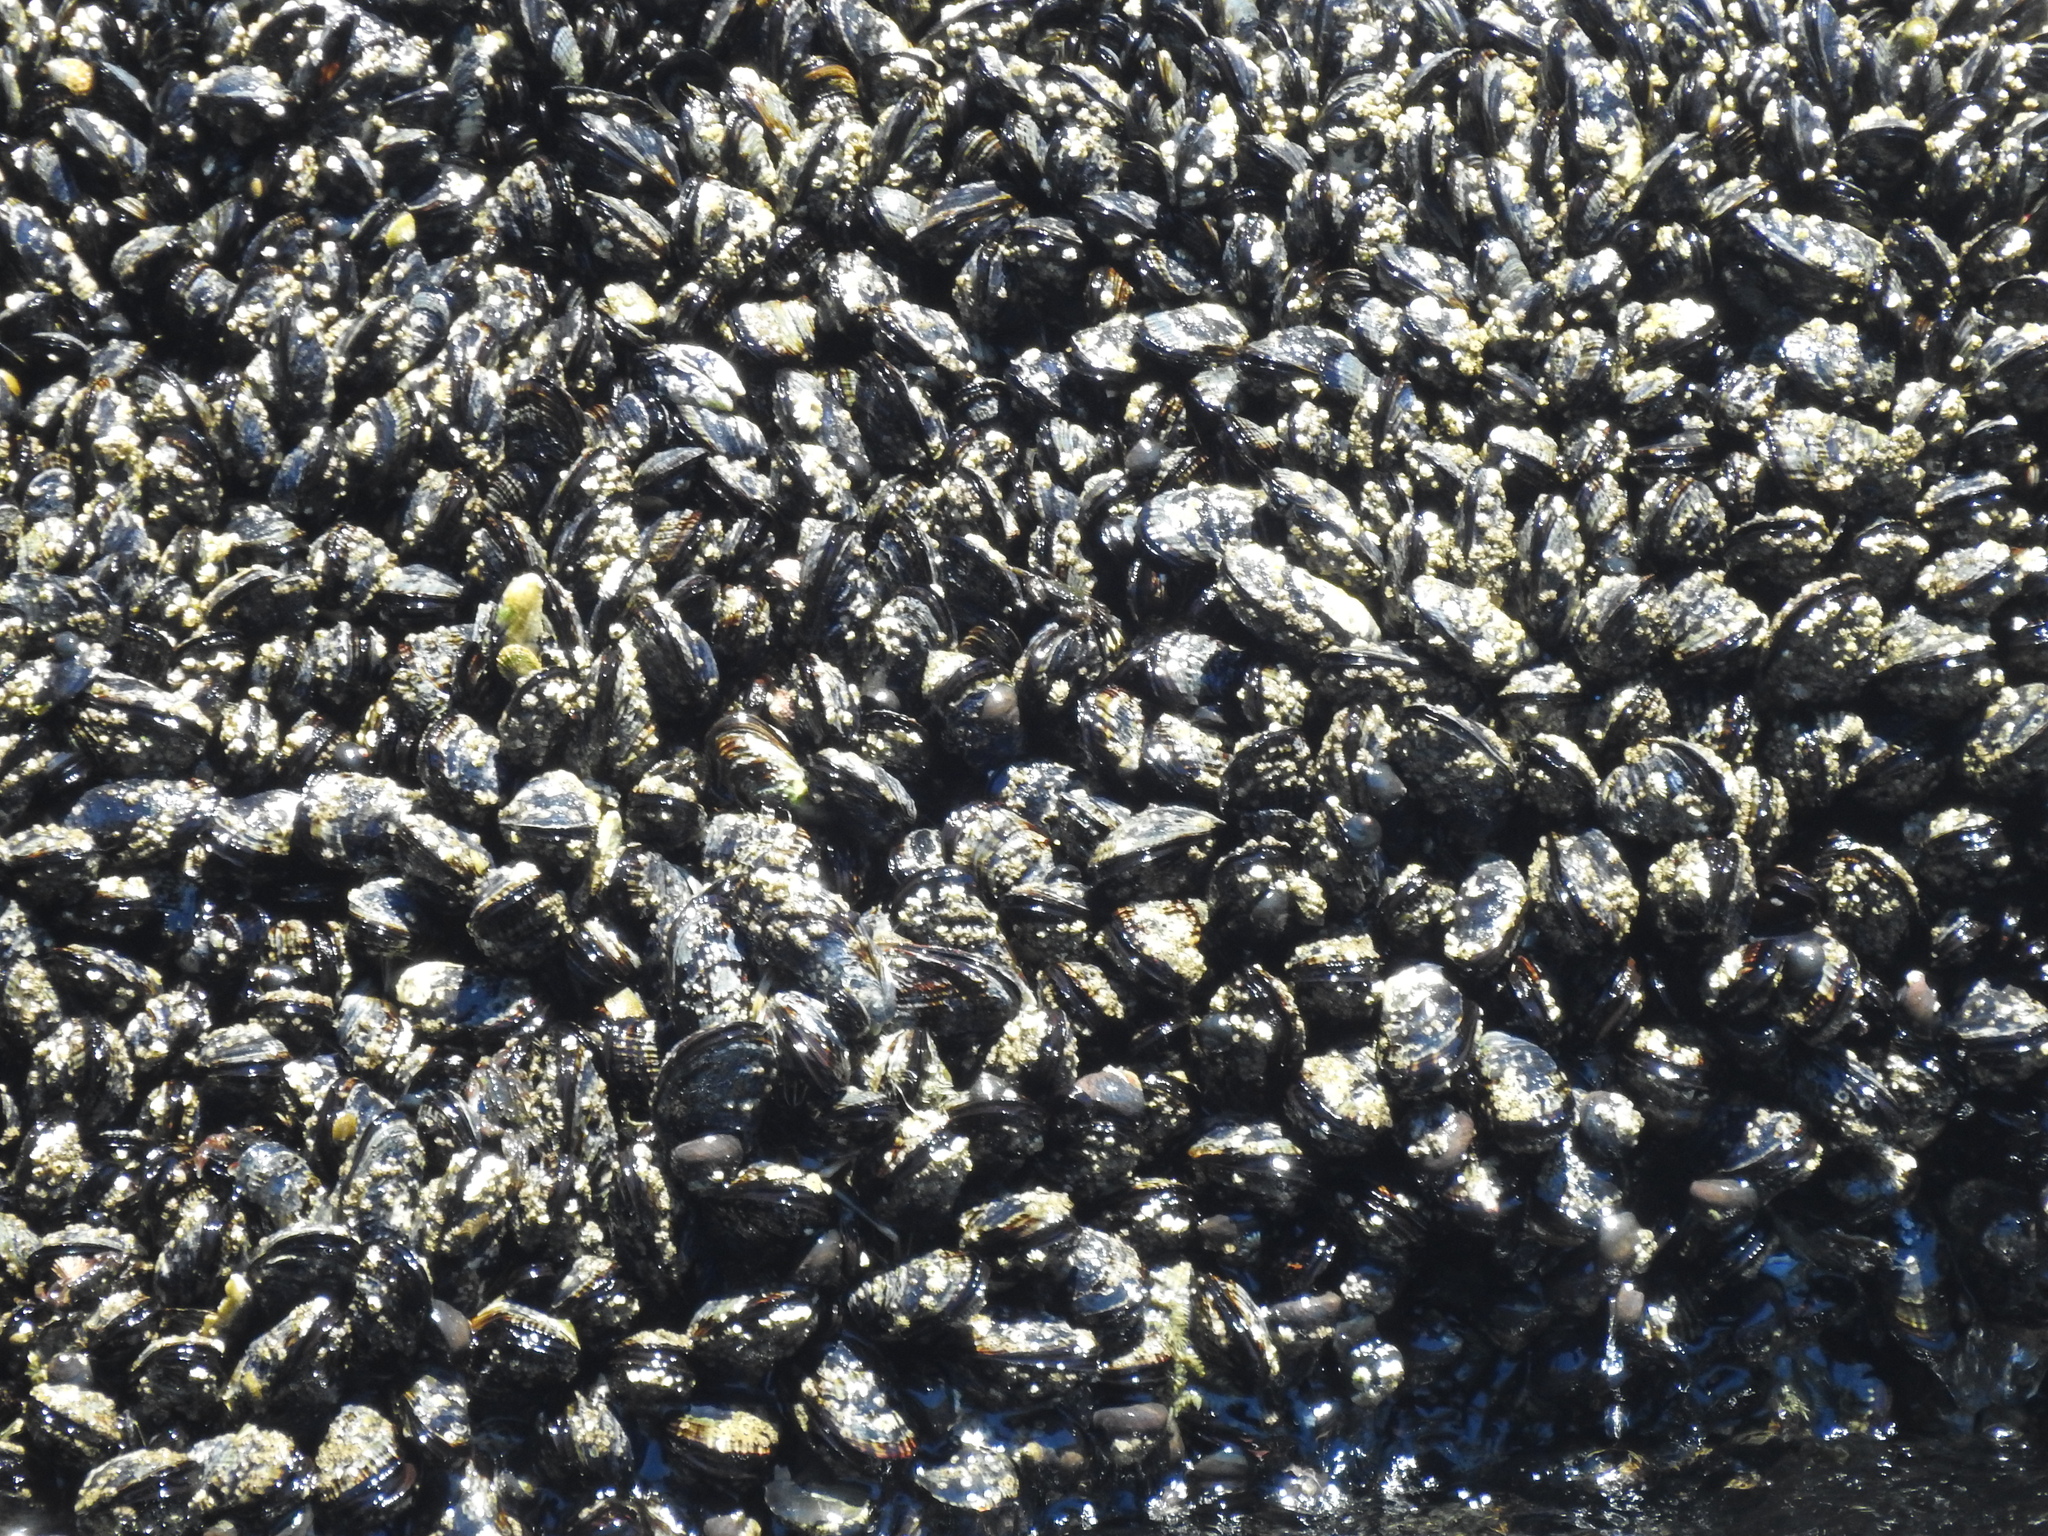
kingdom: Animalia
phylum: Mollusca
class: Bivalvia
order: Mytilida
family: Mytilidae
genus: Mytilus
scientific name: Mytilus californianus
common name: California mussel
